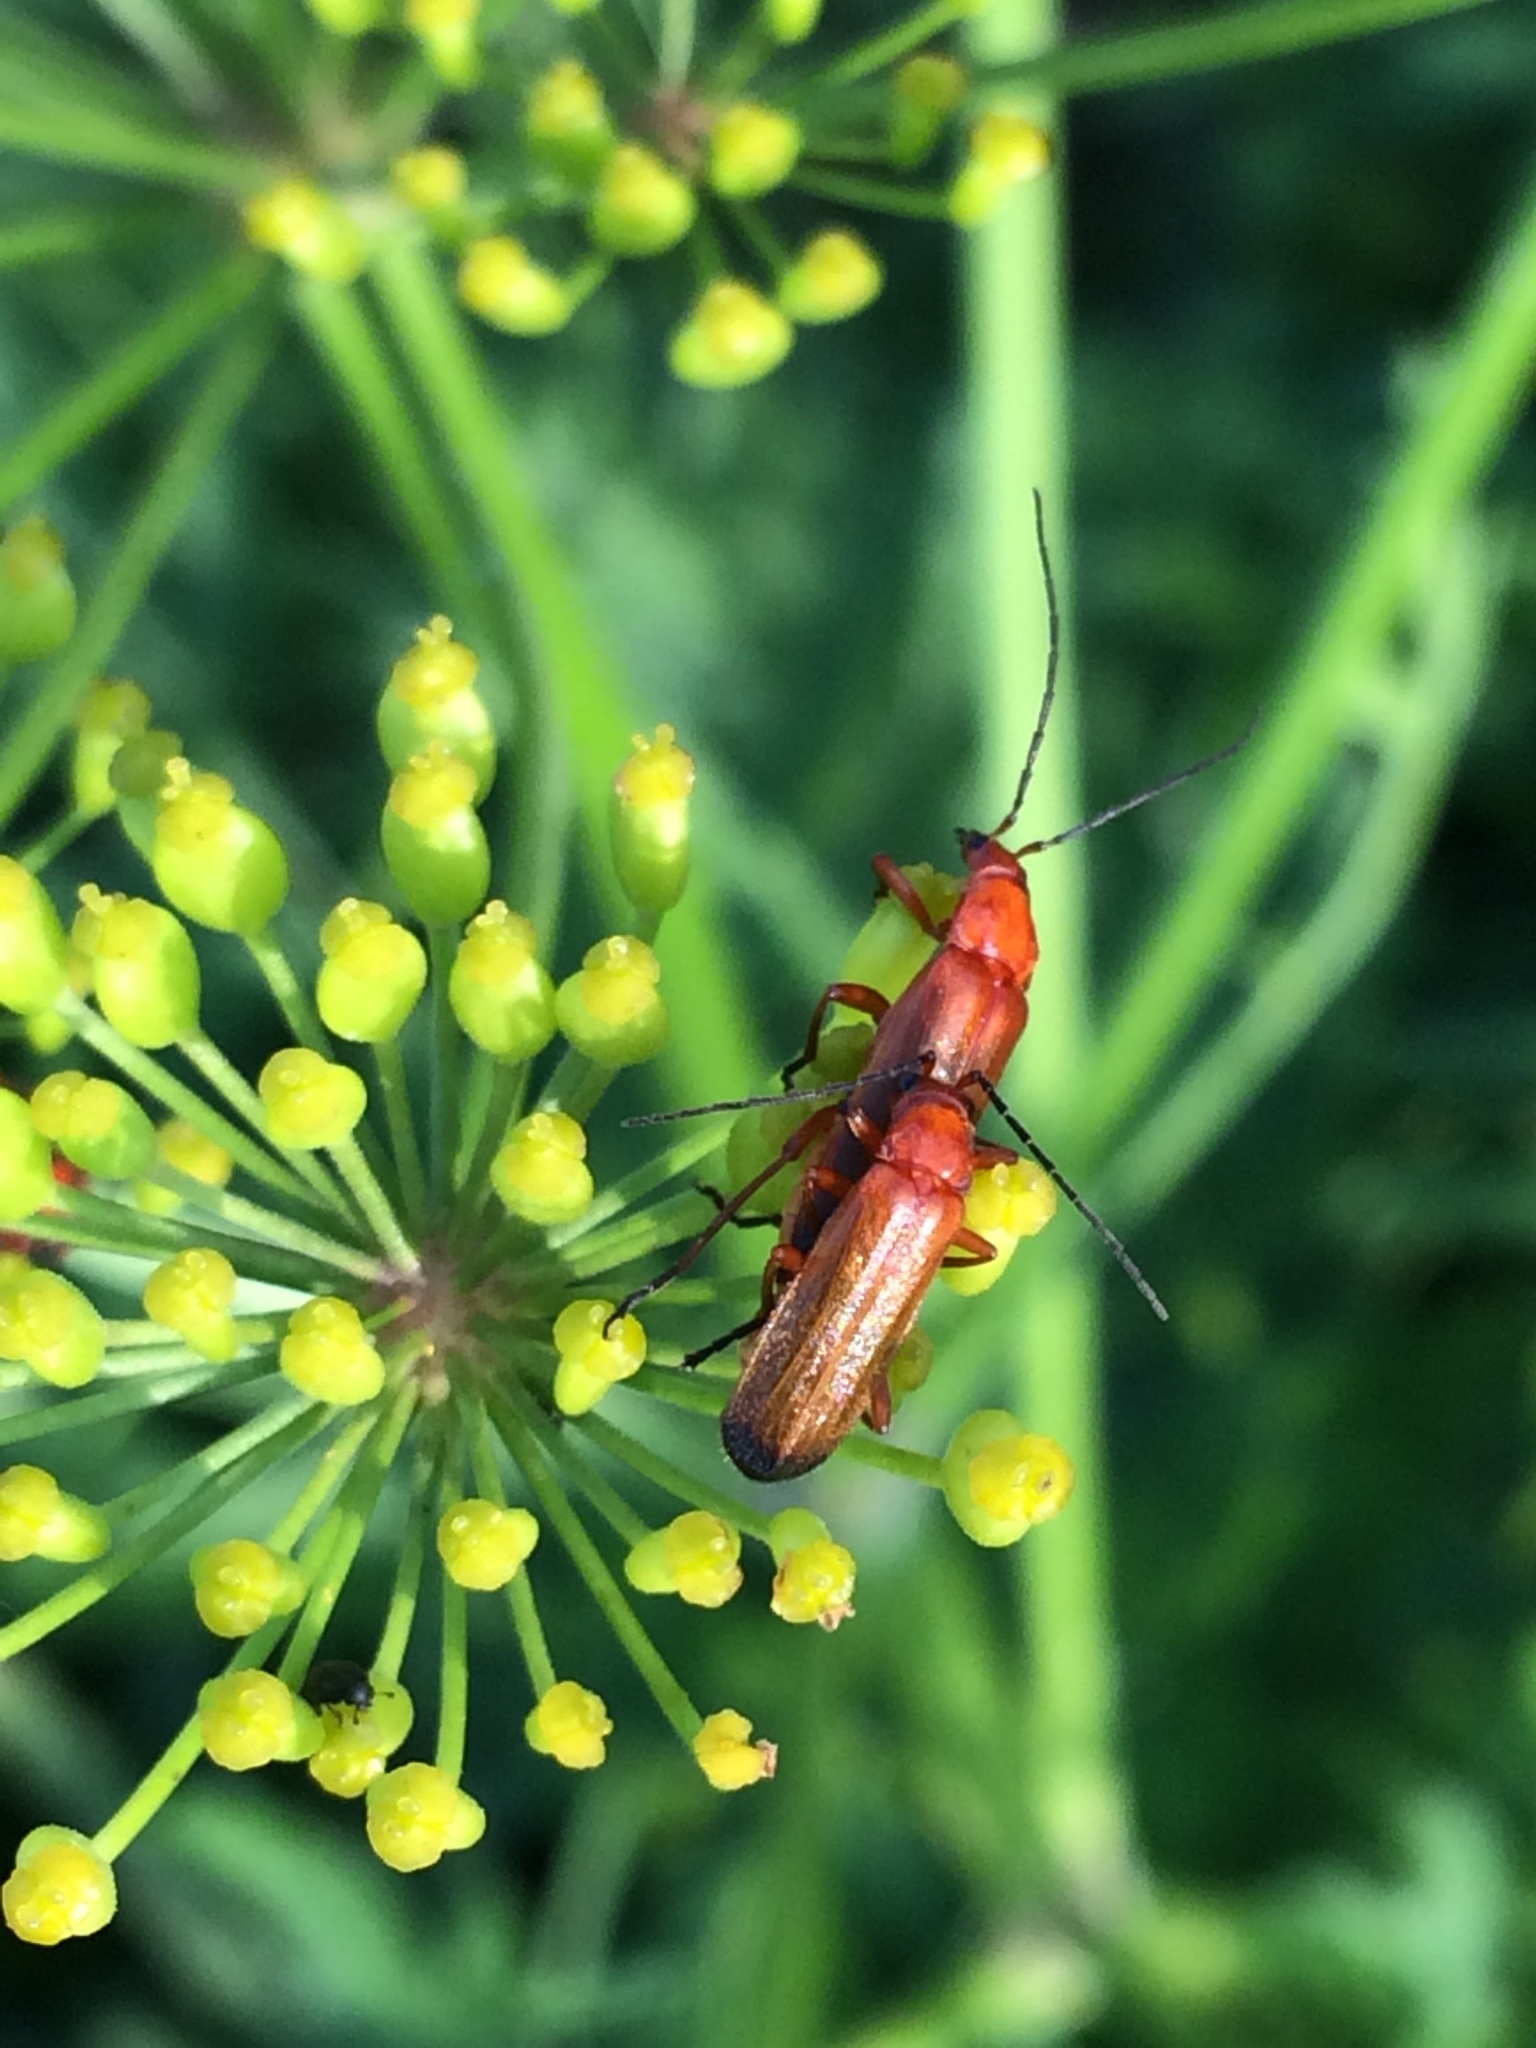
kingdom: Animalia
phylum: Arthropoda
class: Insecta
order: Coleoptera
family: Cantharidae
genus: Rhagonycha
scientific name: Rhagonycha fulva
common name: Common red soldier beetle
